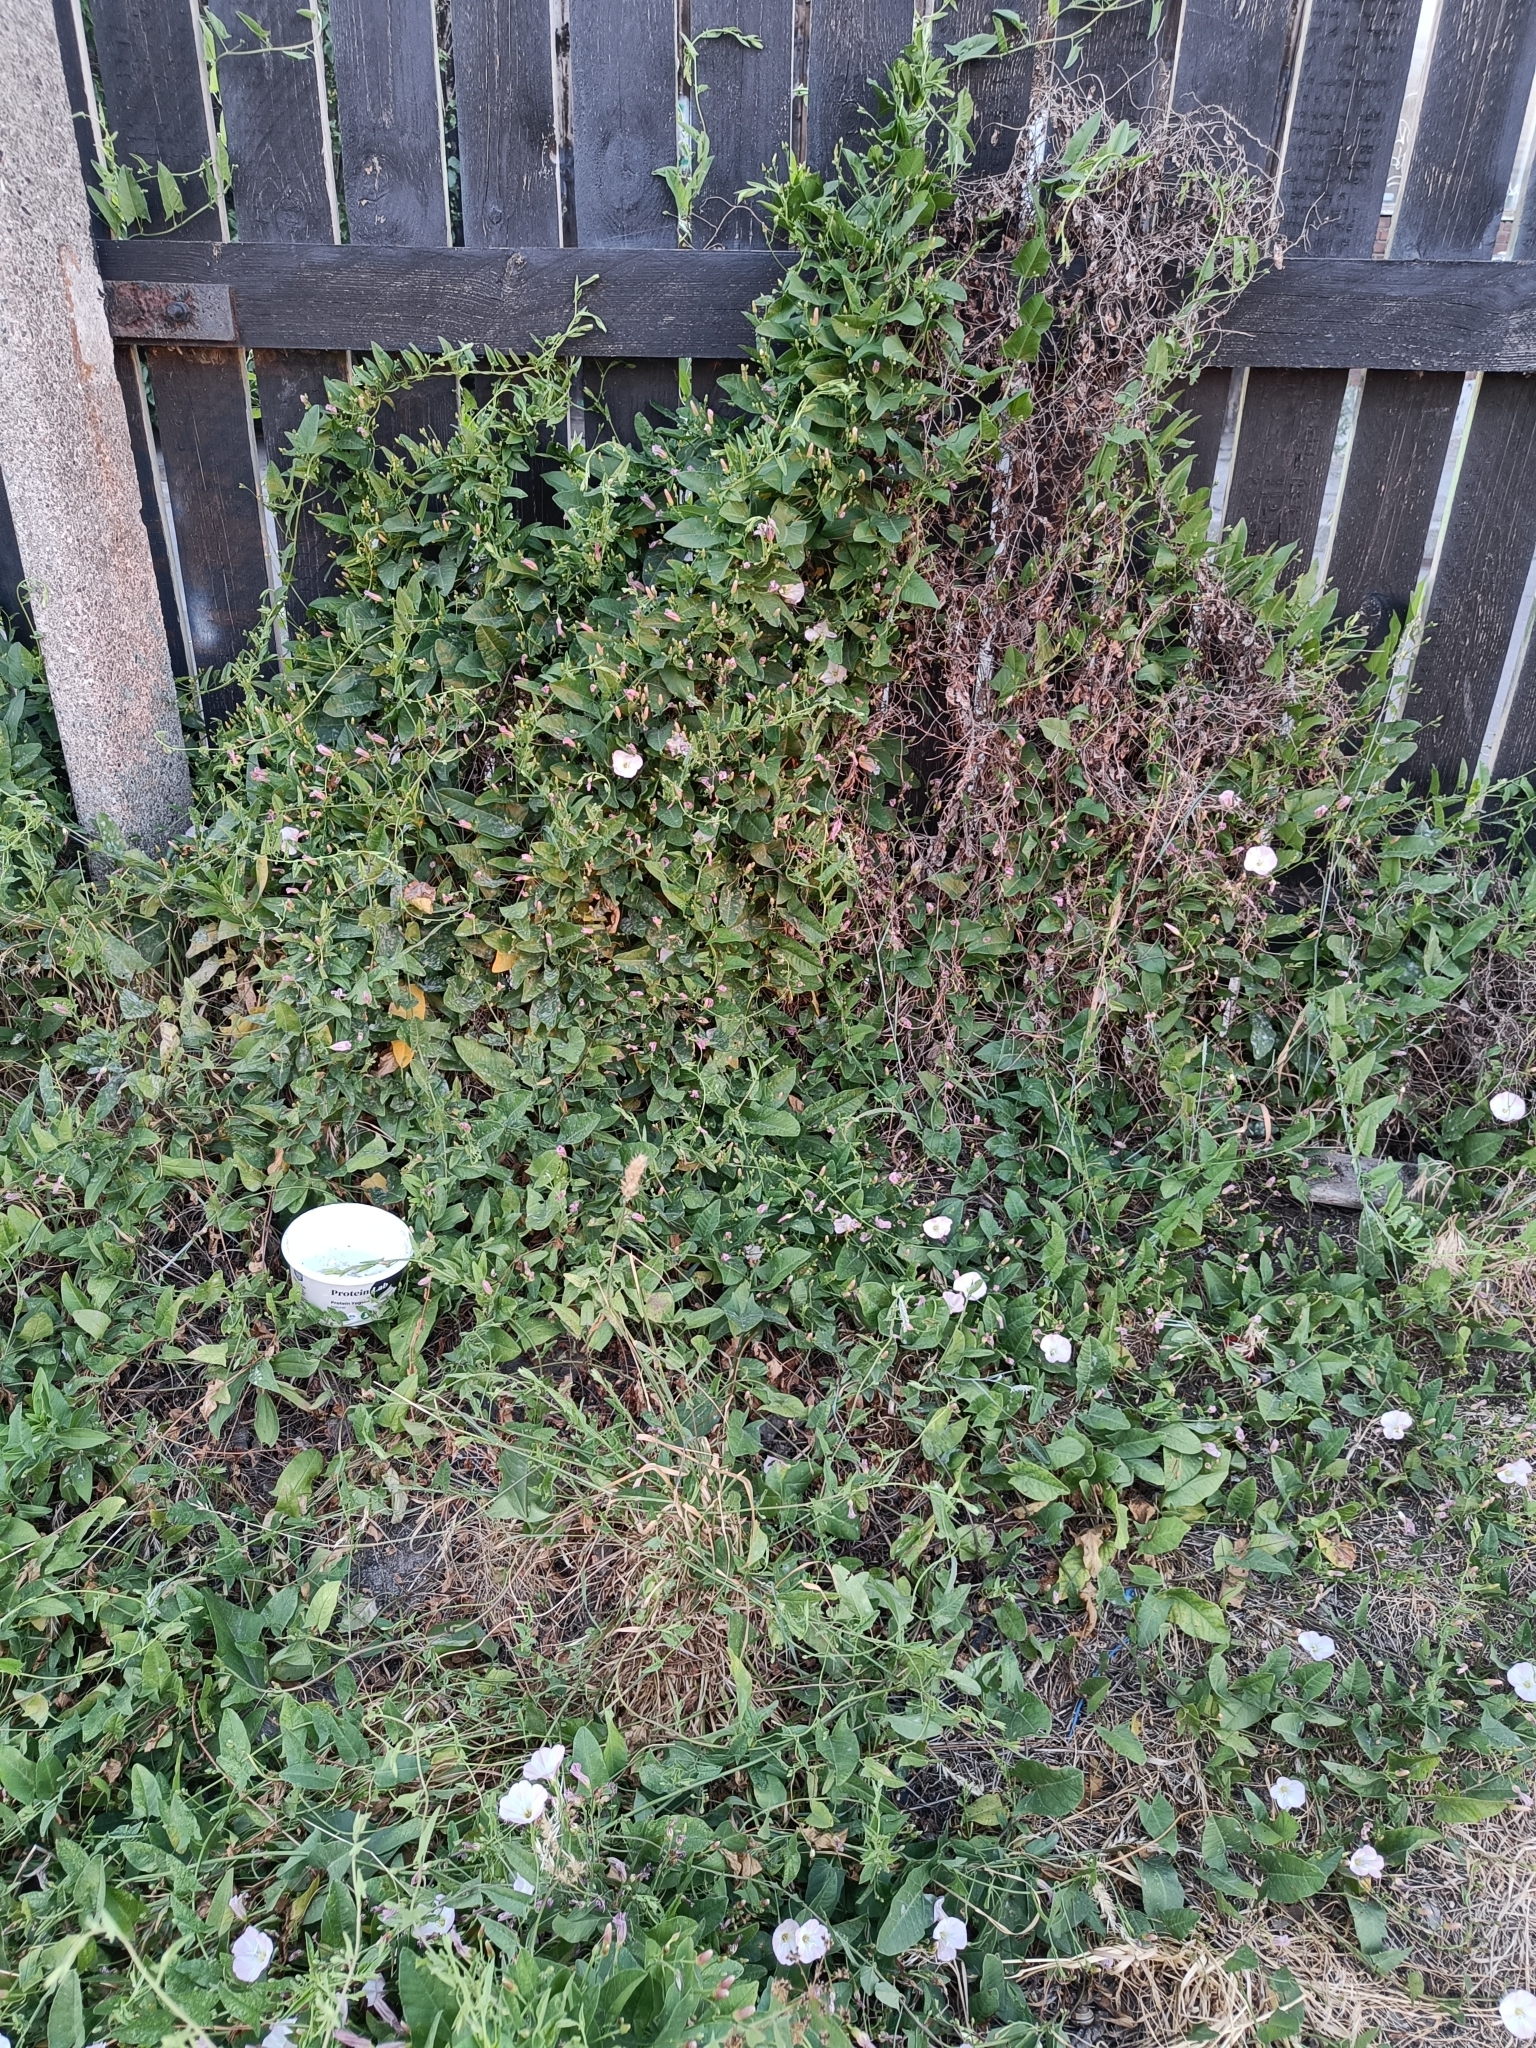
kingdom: Plantae
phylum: Tracheophyta
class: Magnoliopsida
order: Solanales
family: Convolvulaceae
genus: Convolvulus
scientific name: Convolvulus arvensis
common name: Field bindweed
